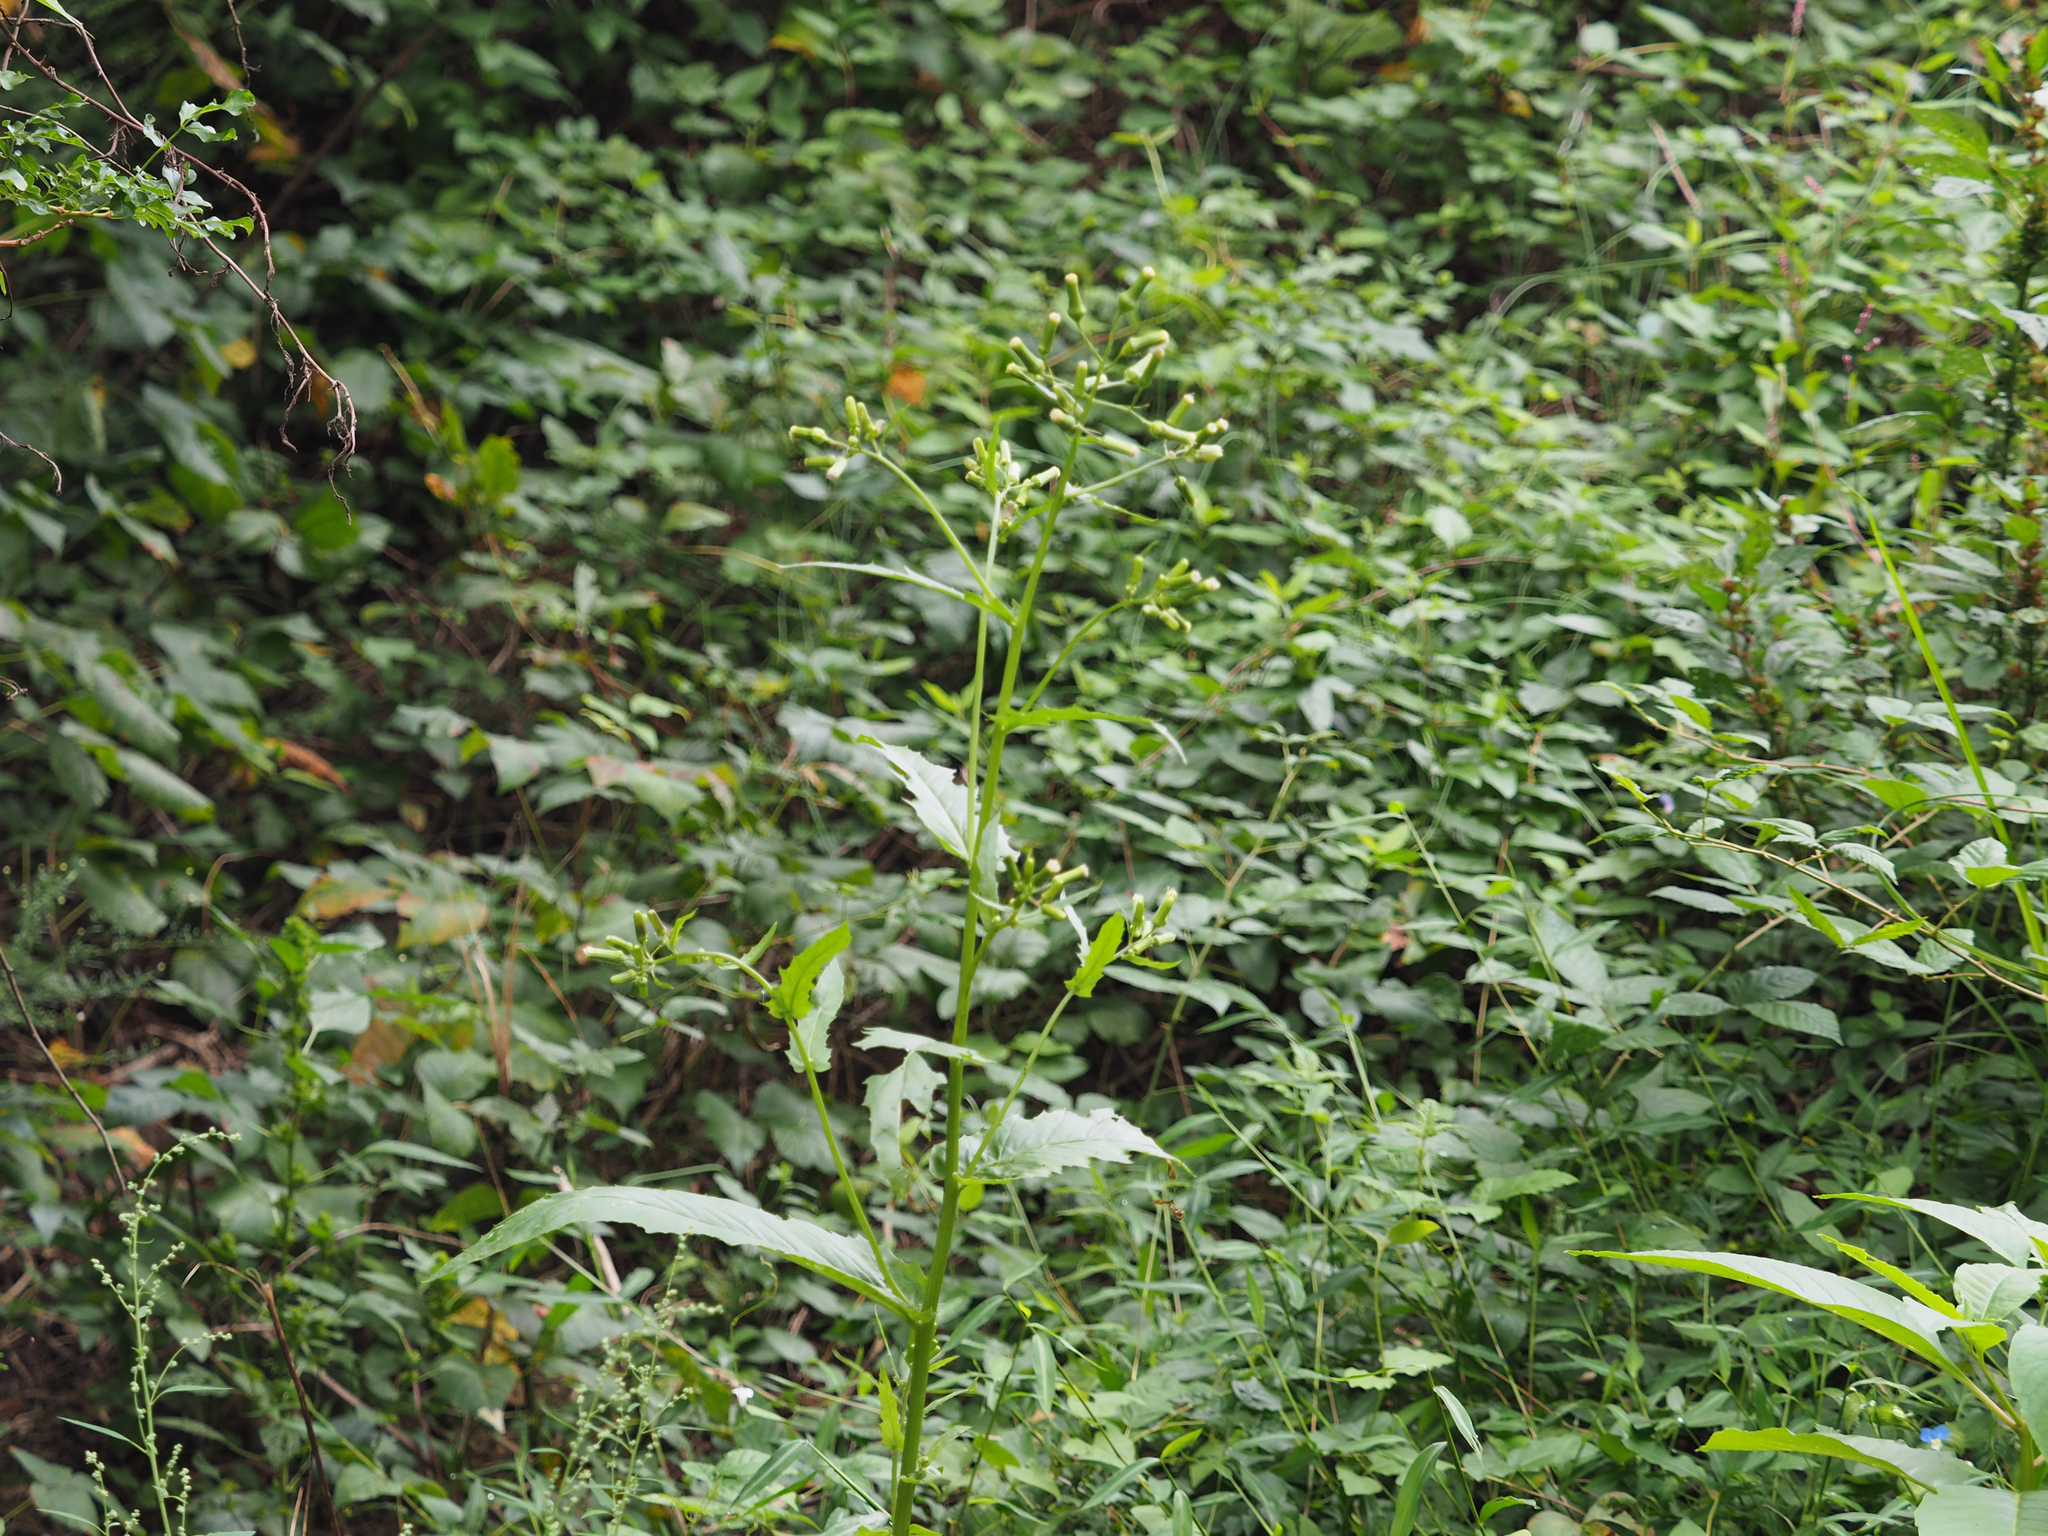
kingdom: Plantae
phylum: Tracheophyta
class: Magnoliopsida
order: Asterales
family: Asteraceae
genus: Erechtites
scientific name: Erechtites hieraciifolius
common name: American burnweed
